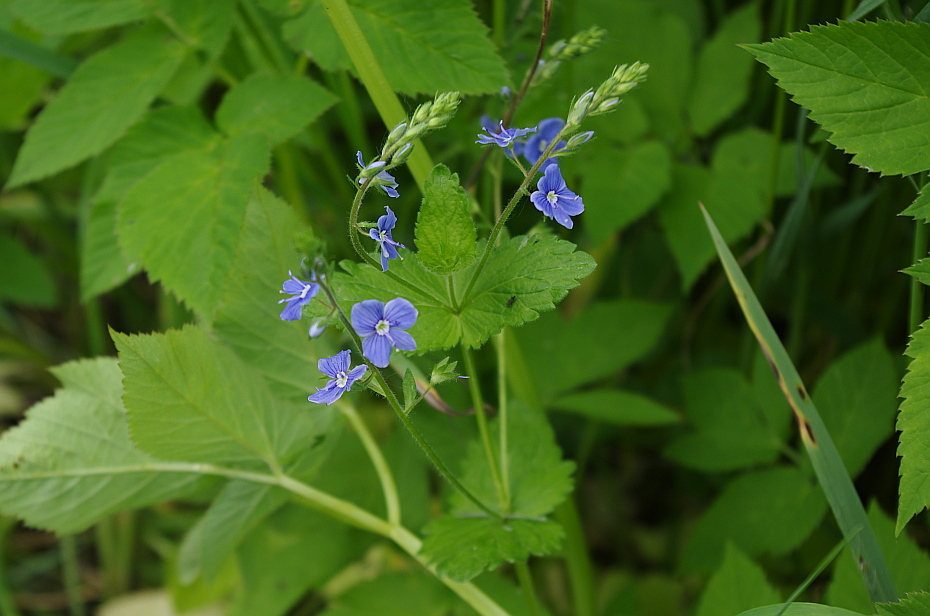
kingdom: Plantae
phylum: Tracheophyta
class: Magnoliopsida
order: Lamiales
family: Plantaginaceae
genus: Veronica
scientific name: Veronica chamaedrys
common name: Germander speedwell
